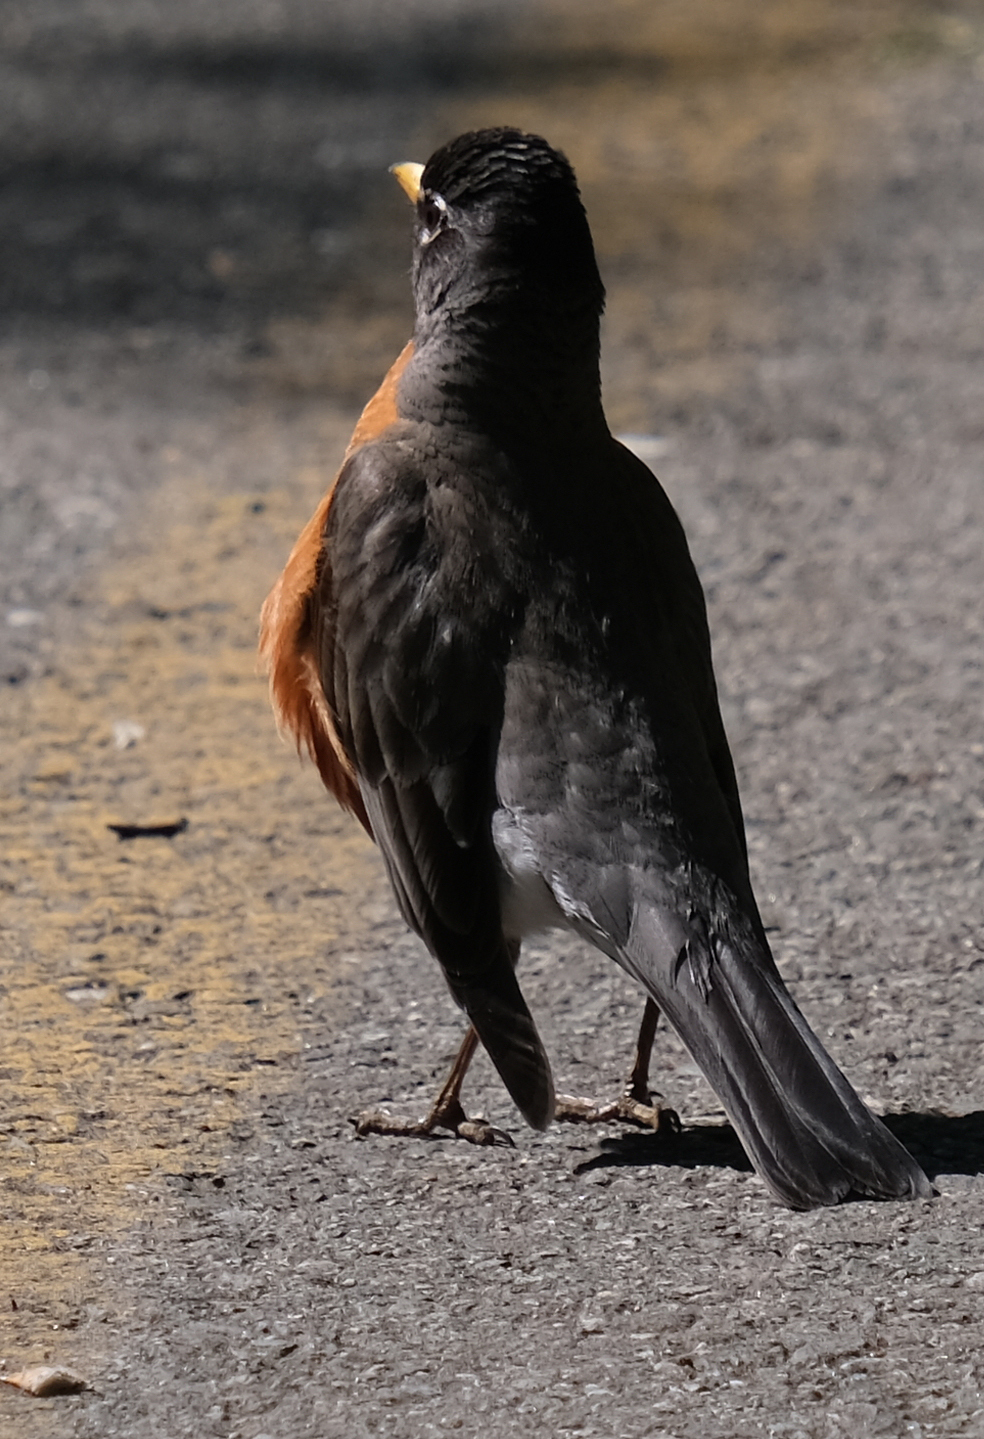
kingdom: Animalia
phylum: Chordata
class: Aves
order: Passeriformes
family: Turdidae
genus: Turdus
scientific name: Turdus migratorius
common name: American robin
